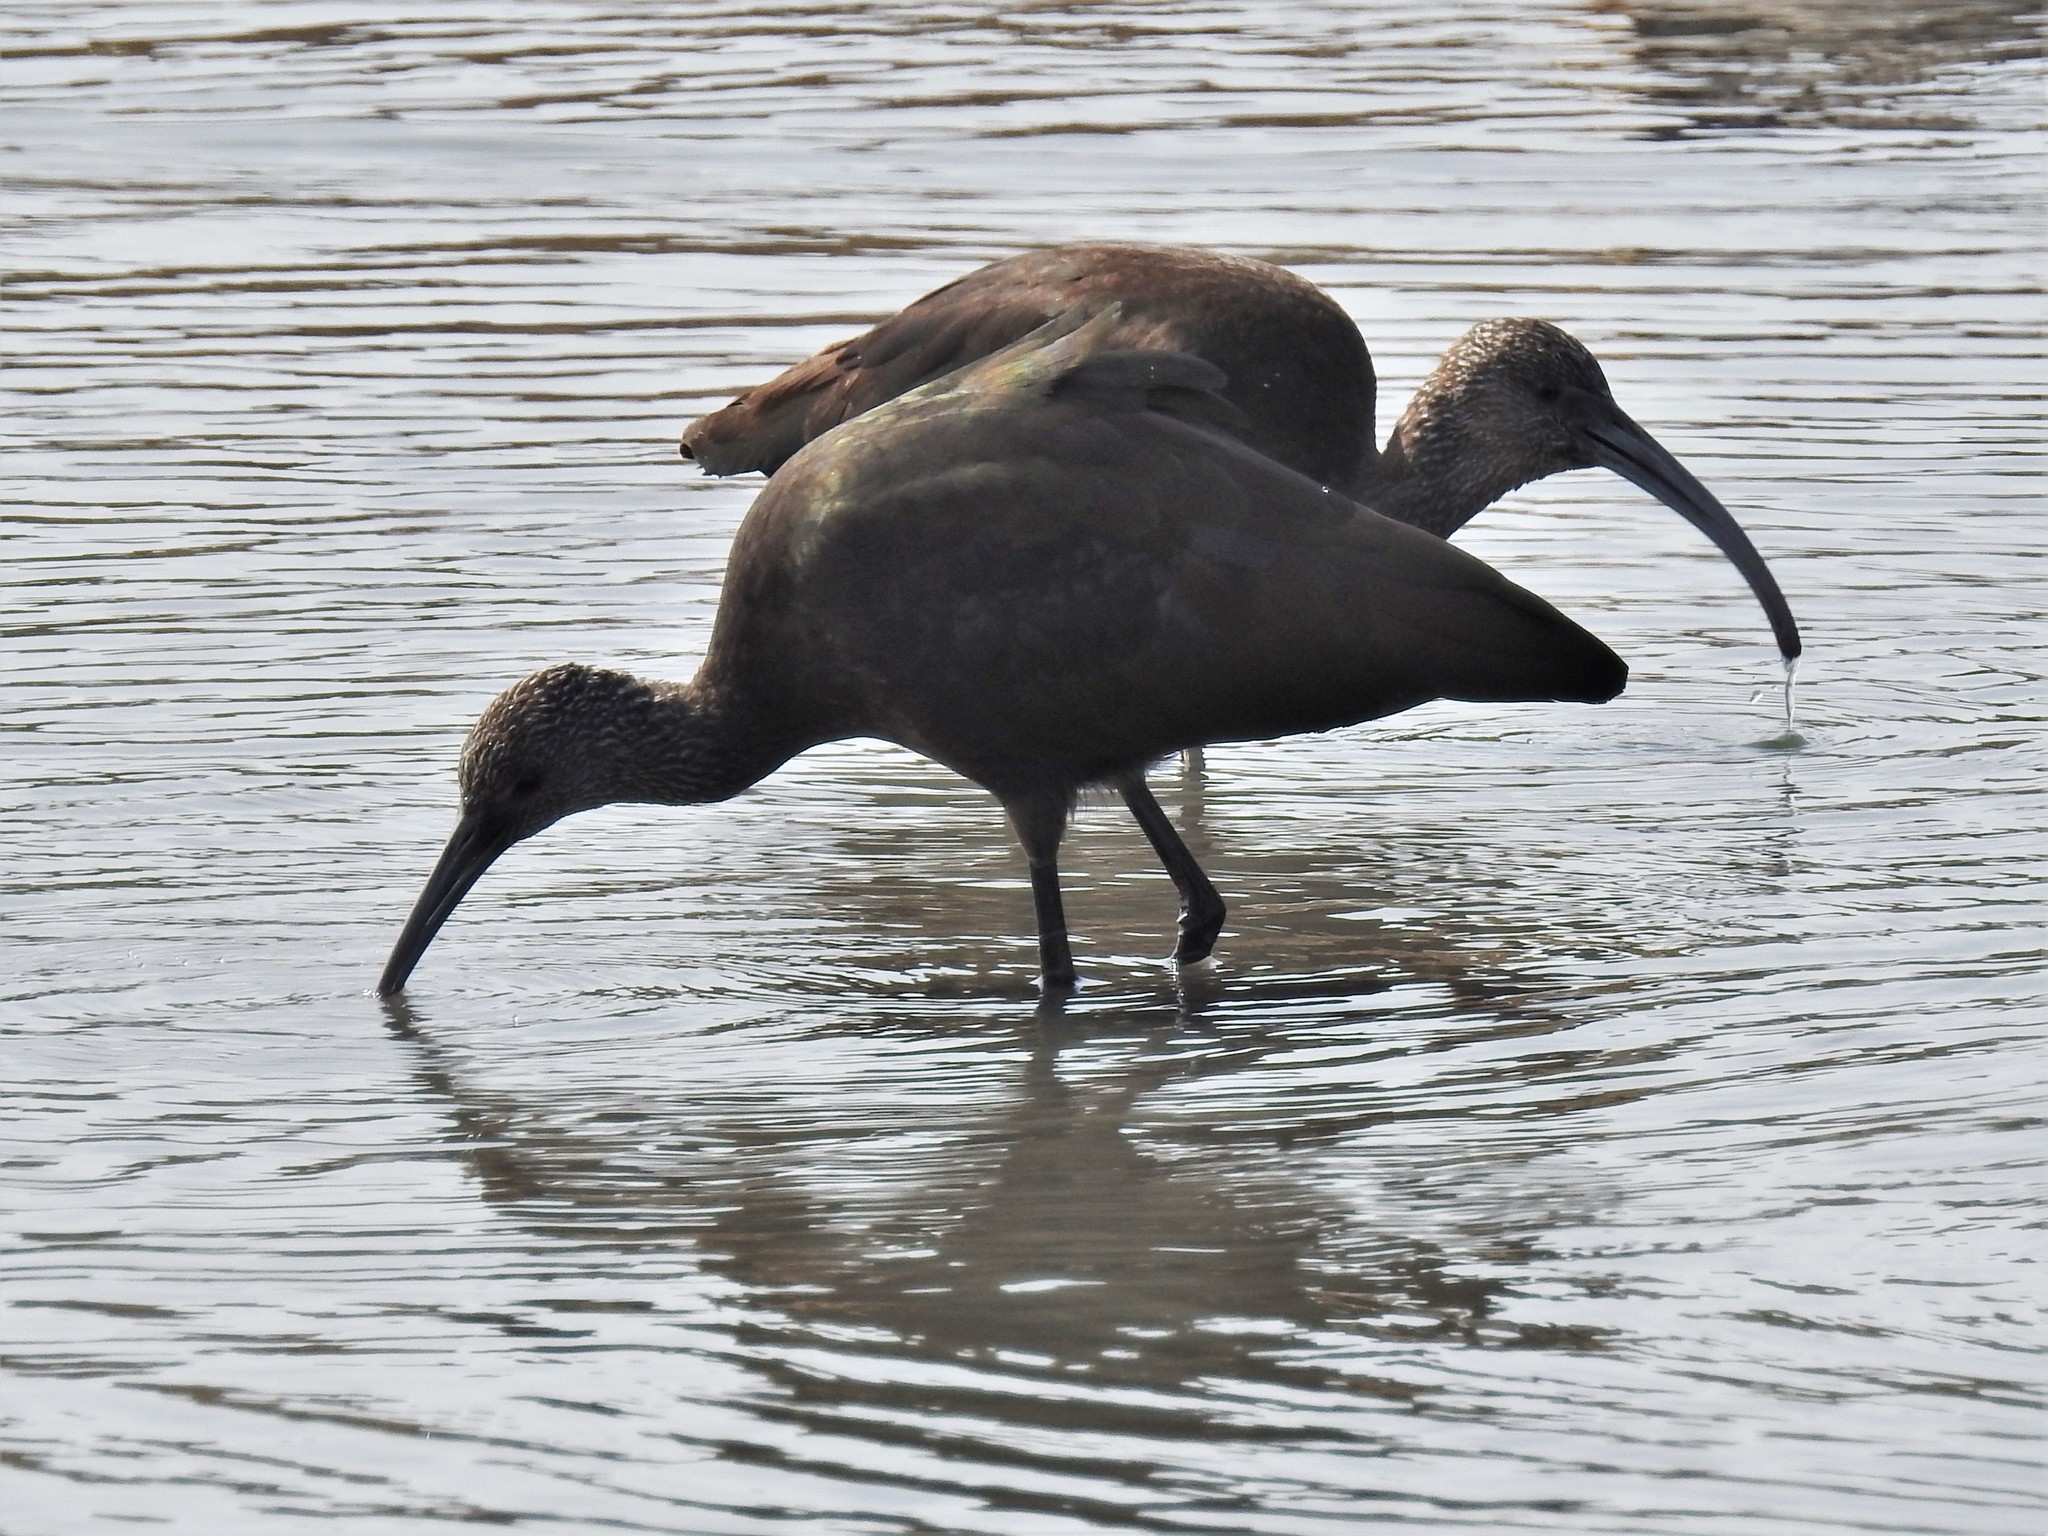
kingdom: Animalia
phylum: Chordata
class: Aves
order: Pelecaniformes
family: Threskiornithidae
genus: Plegadis
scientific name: Plegadis chihi
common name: White-faced ibis
